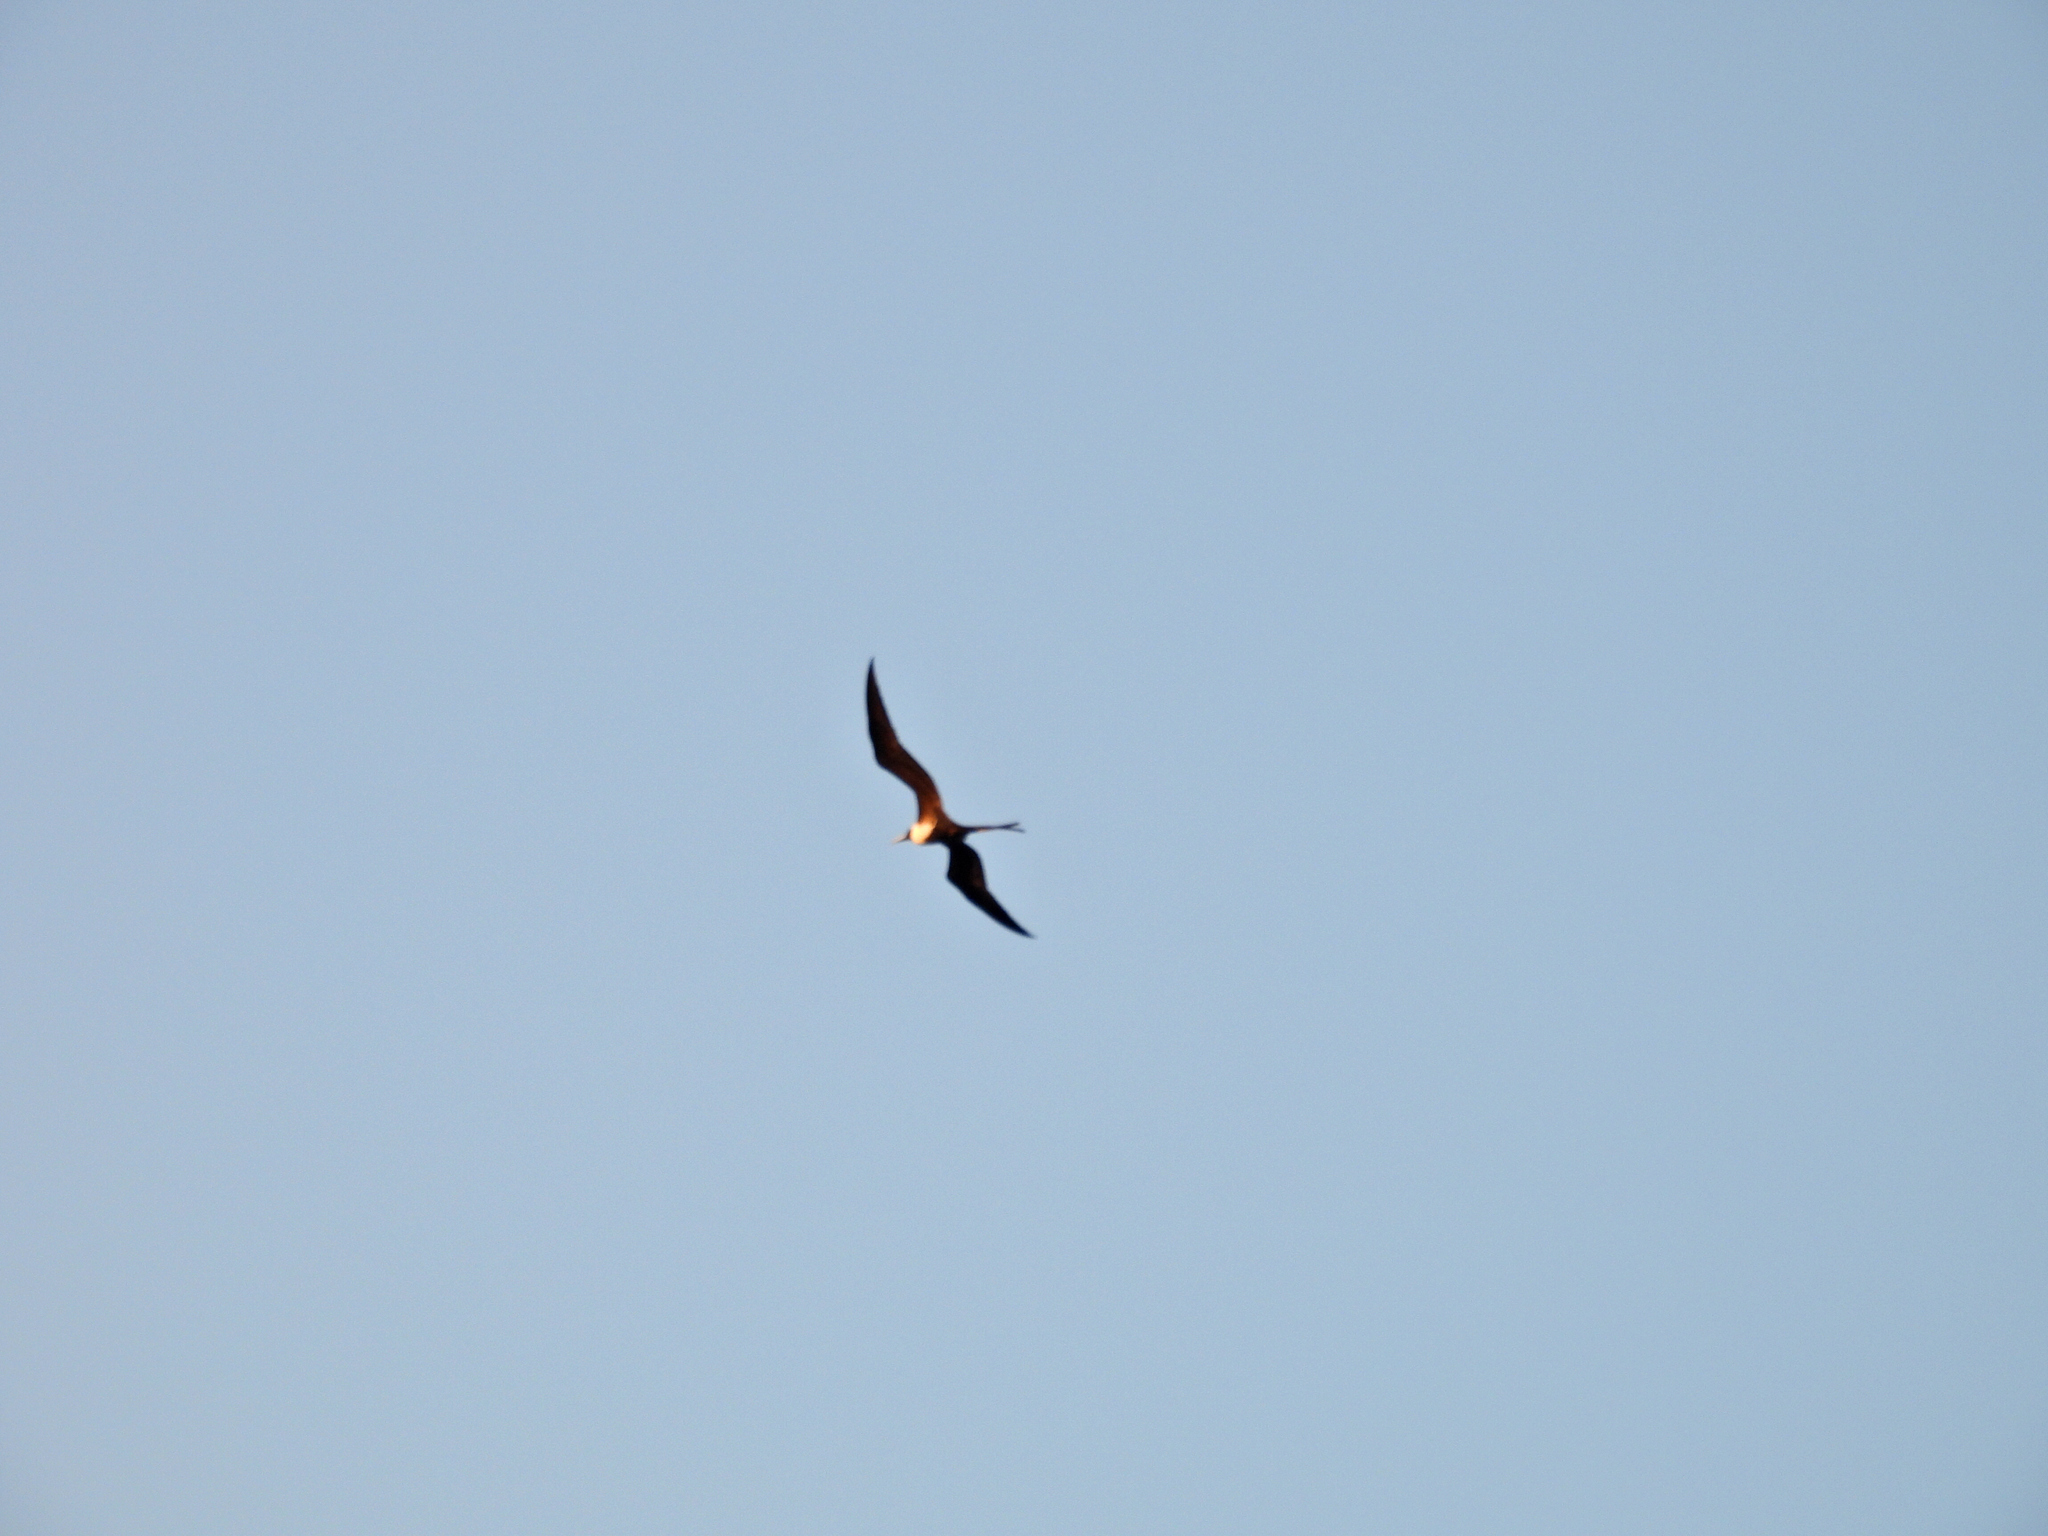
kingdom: Animalia
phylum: Chordata
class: Aves
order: Suliformes
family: Fregatidae
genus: Fregata
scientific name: Fregata magnificens
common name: Magnificent frigatebird
